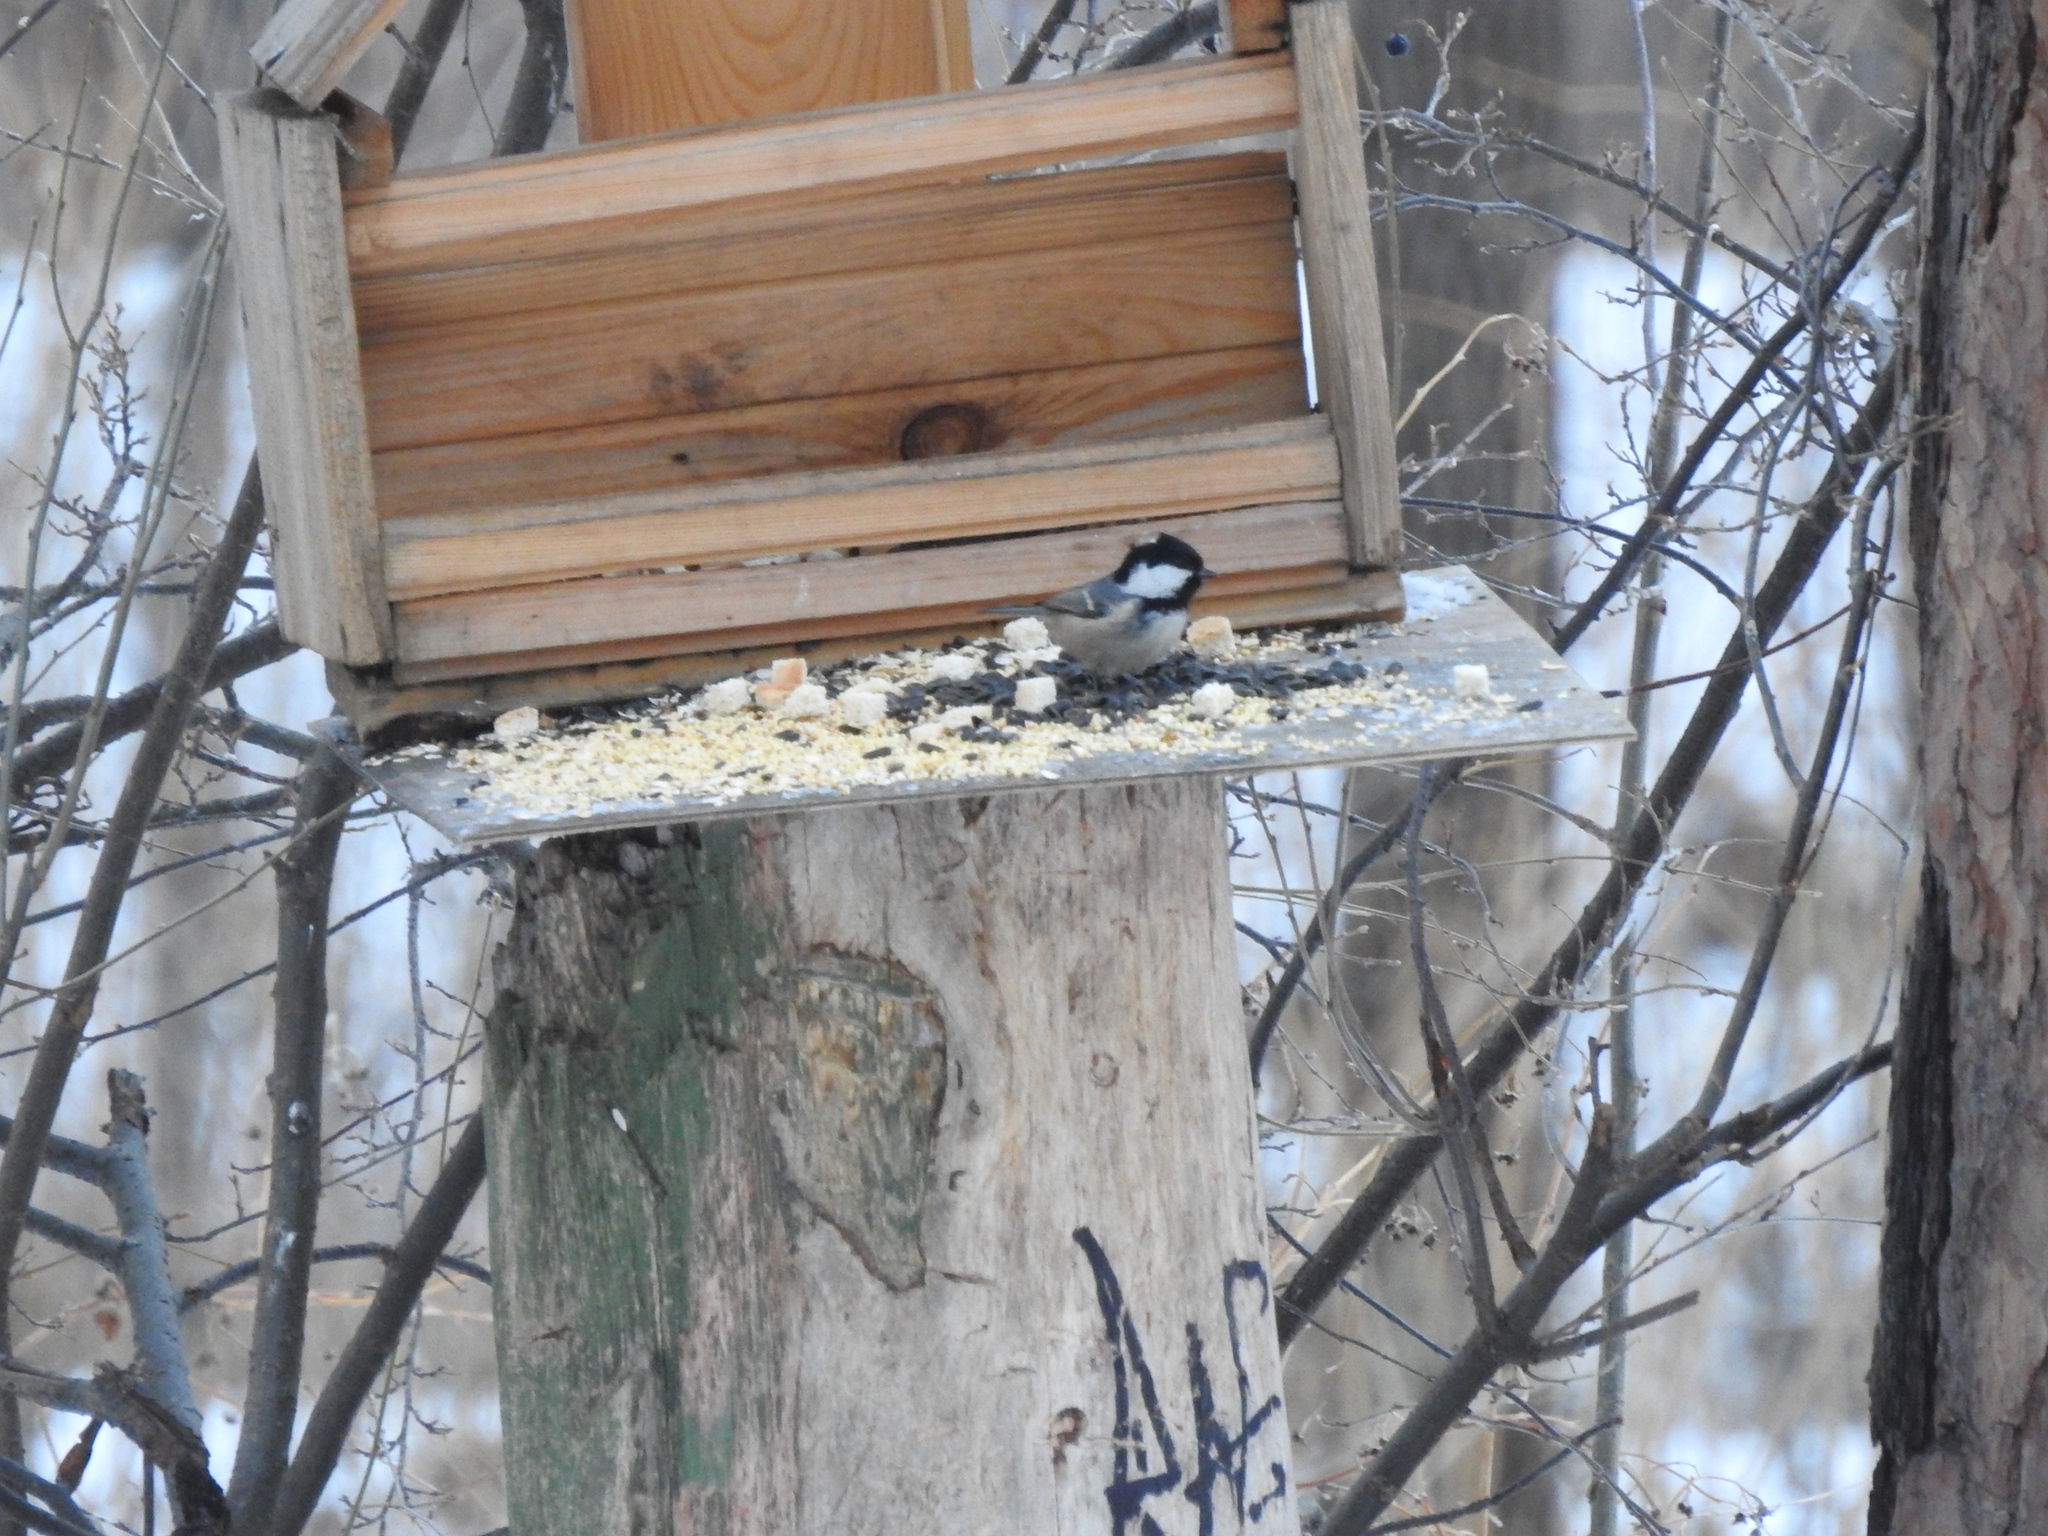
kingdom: Animalia
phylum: Chordata
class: Aves
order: Passeriformes
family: Paridae
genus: Periparus
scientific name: Periparus ater
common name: Coal tit
